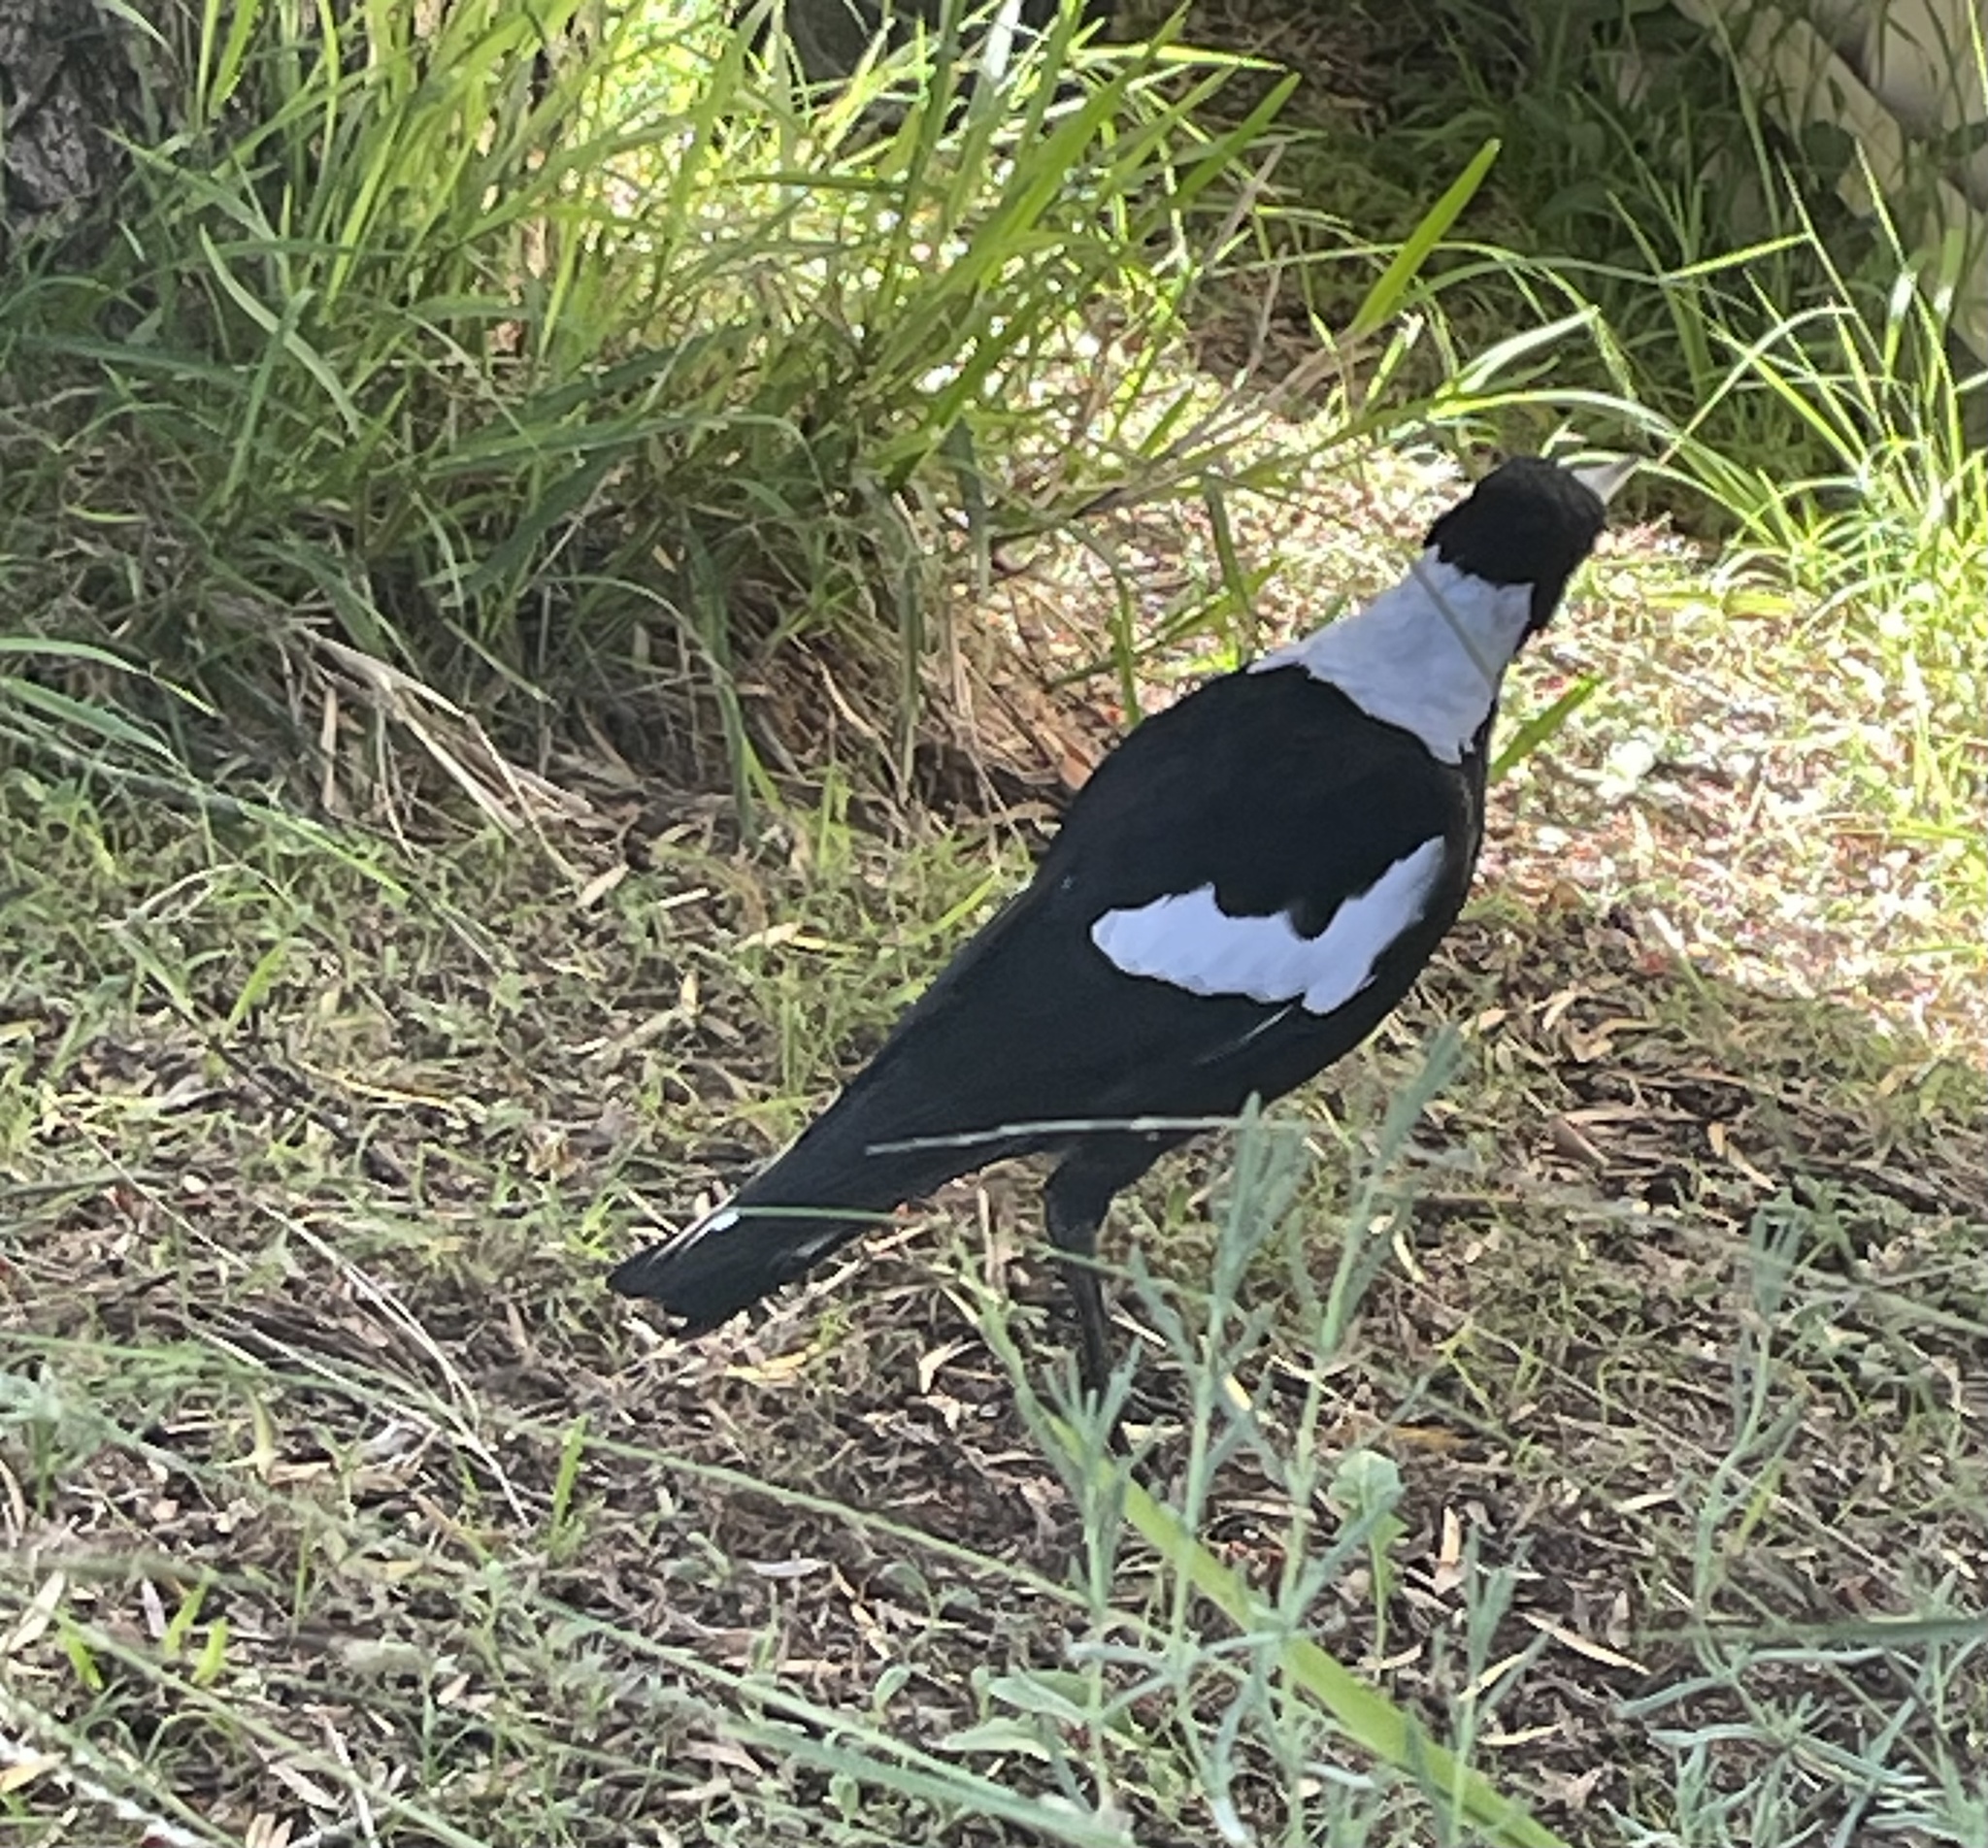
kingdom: Animalia
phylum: Chordata
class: Aves
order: Passeriformes
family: Cracticidae
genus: Gymnorhina
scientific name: Gymnorhina tibicen
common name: Australian magpie
